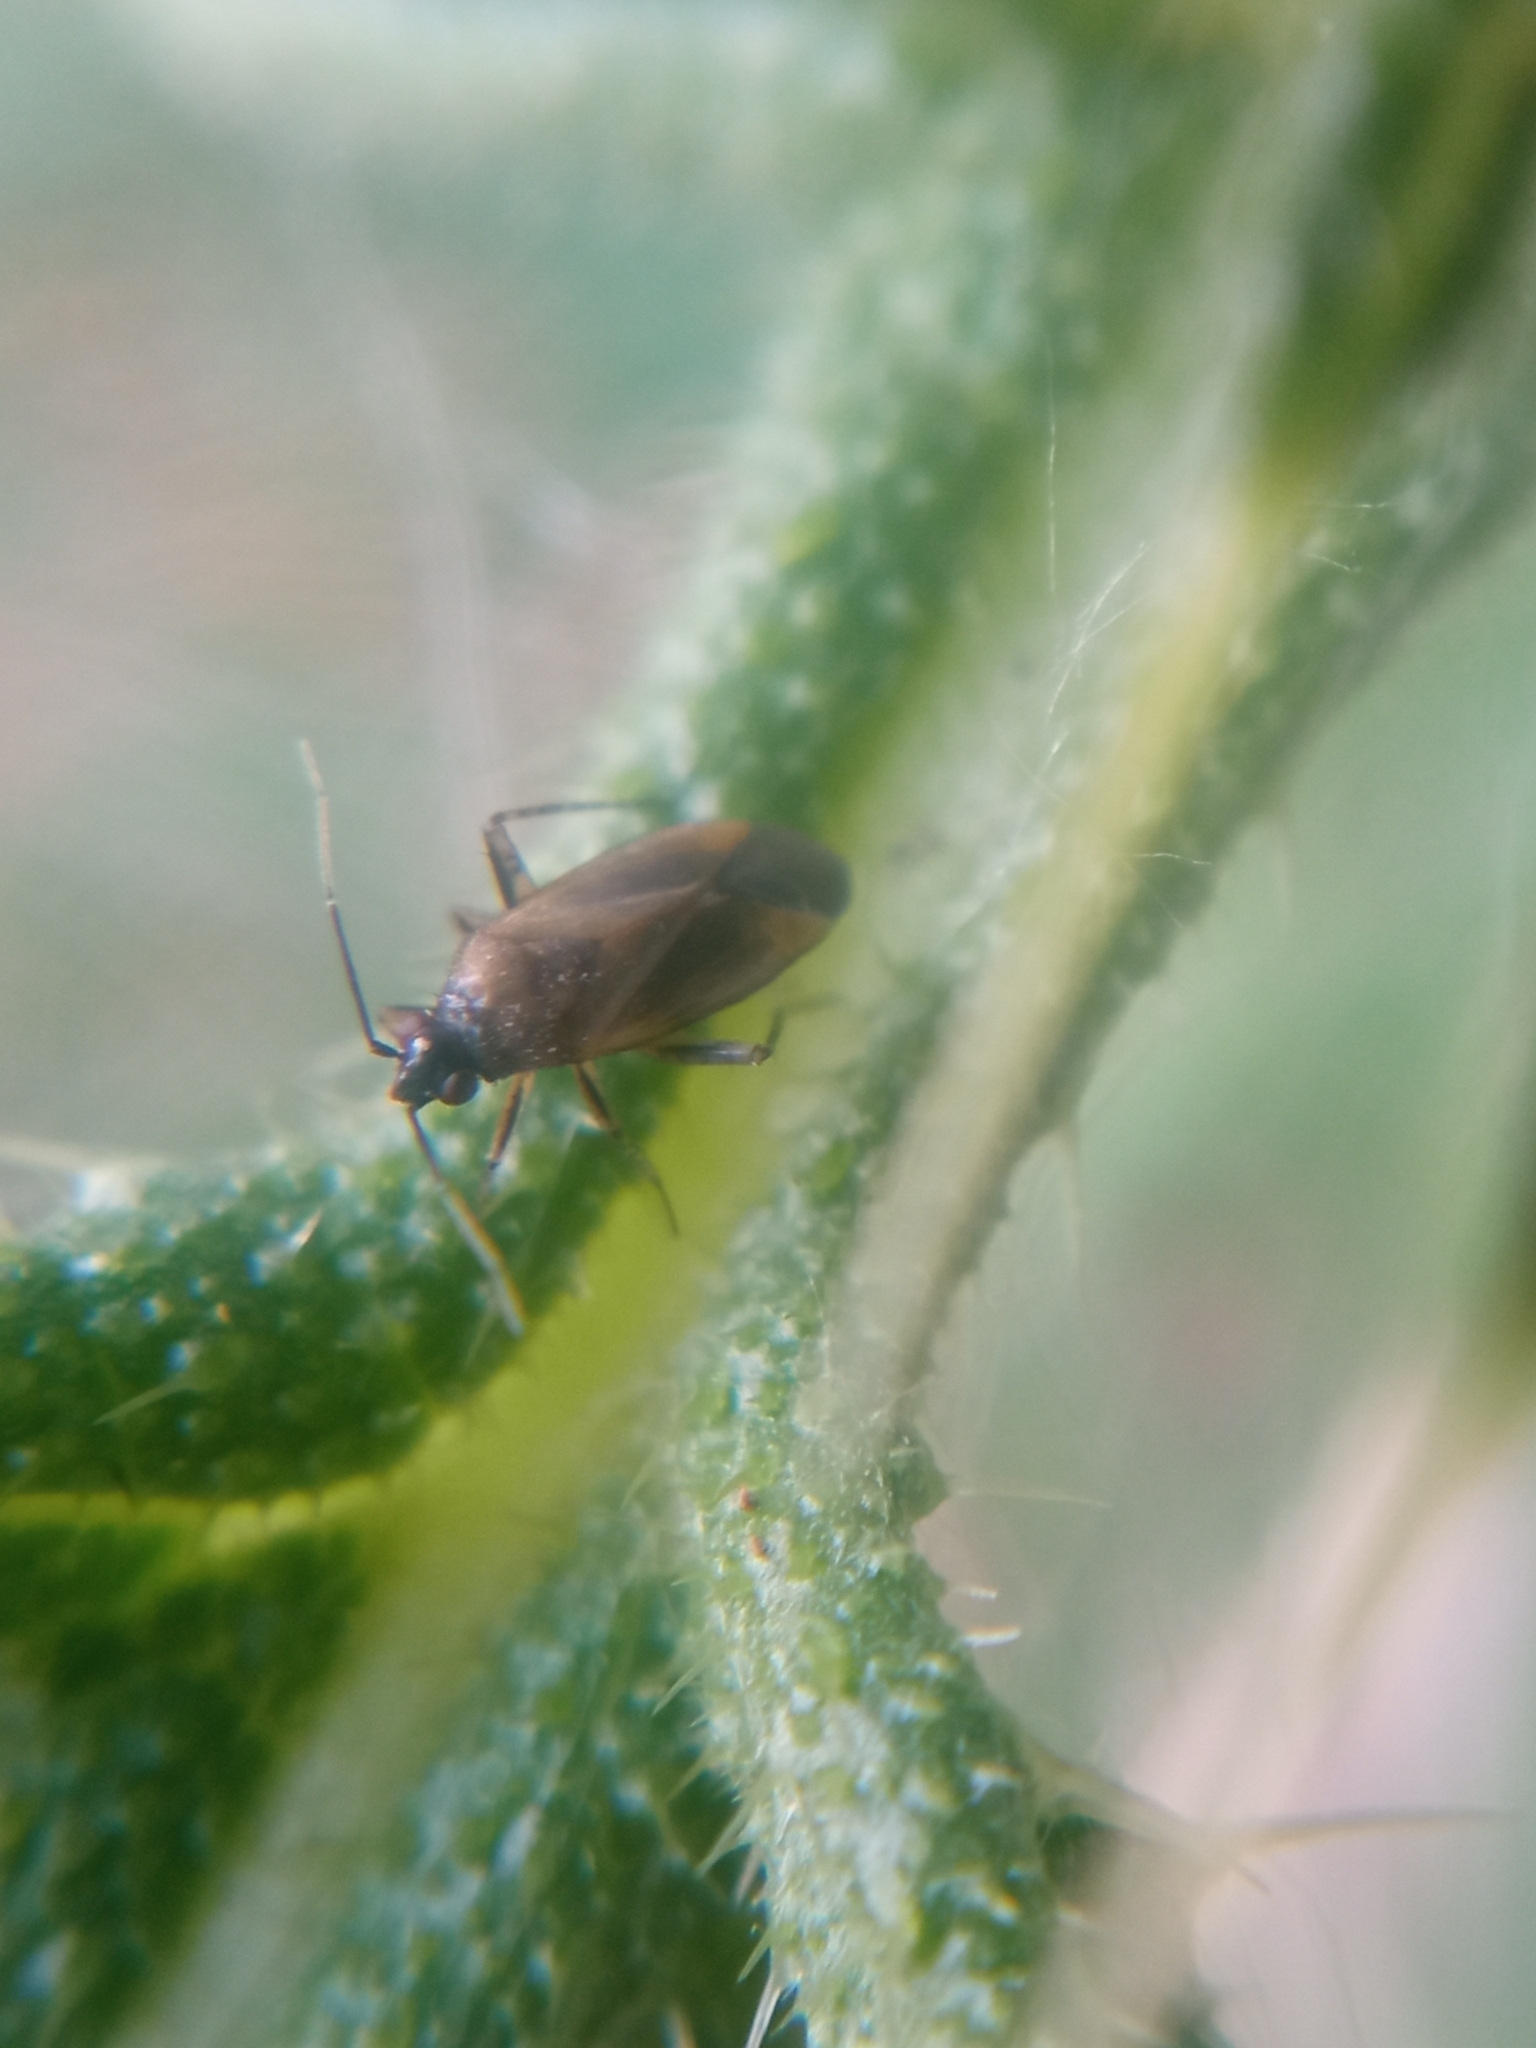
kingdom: Animalia
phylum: Arthropoda
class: Insecta
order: Hemiptera
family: Miridae
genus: Plagiognathus
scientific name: Plagiognathus arbustorum
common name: Plant bug
